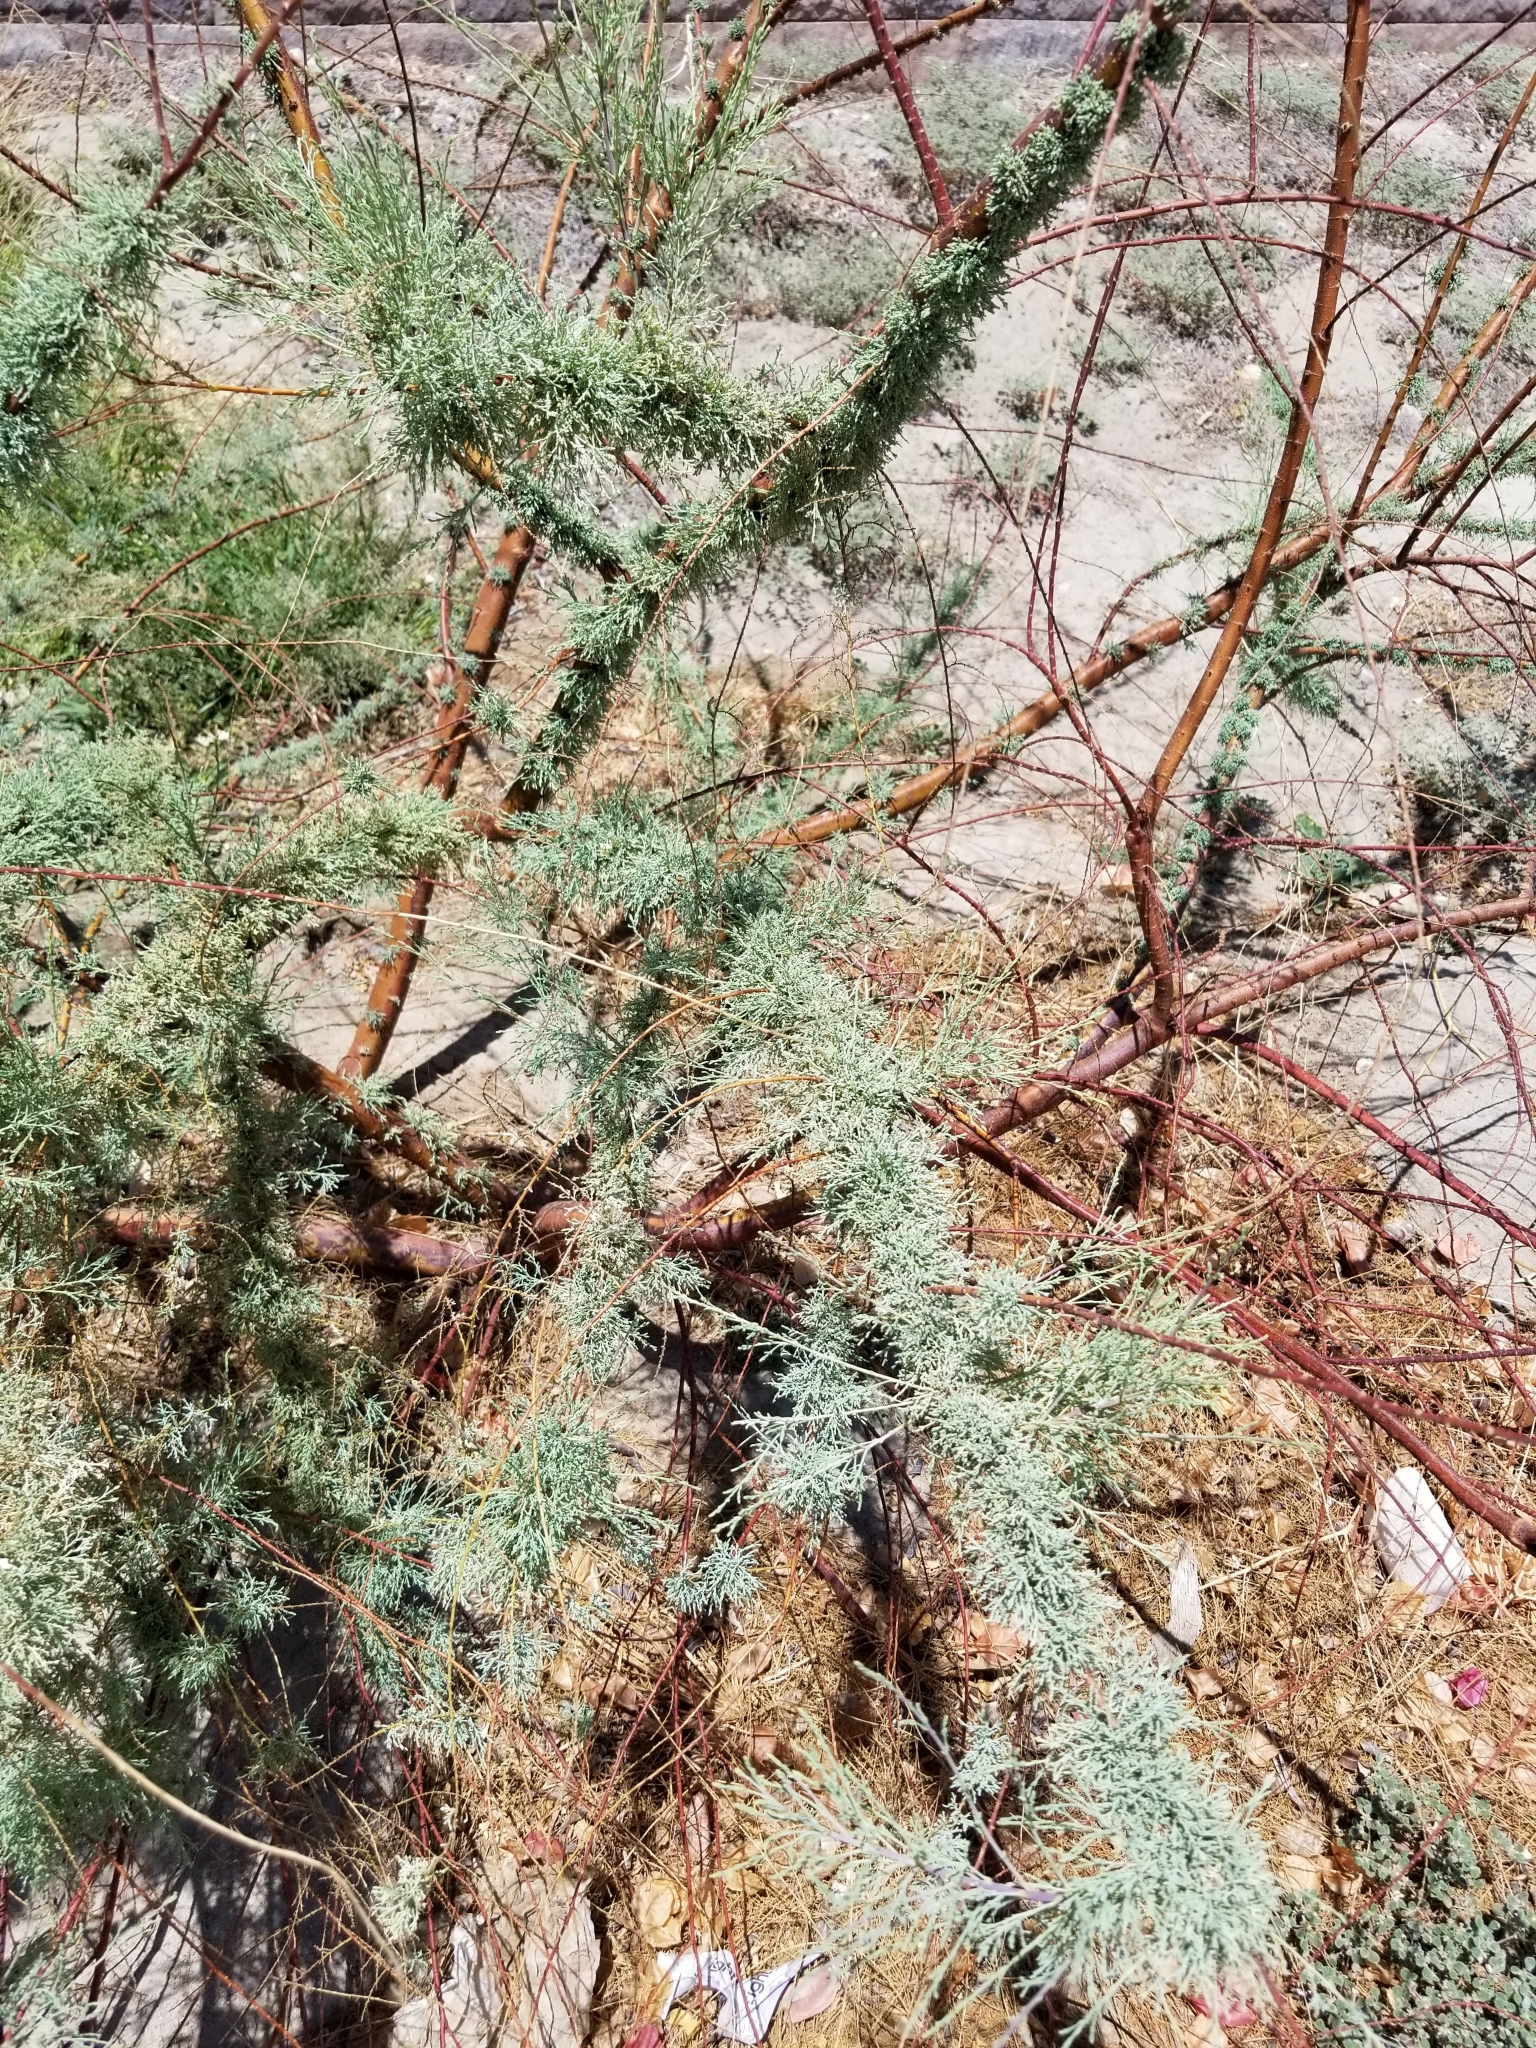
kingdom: Plantae
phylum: Tracheophyta
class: Magnoliopsida
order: Caryophyllales
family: Tamaricaceae
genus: Tamarix
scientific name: Tamarix ramosissima
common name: Pink tamarisk
